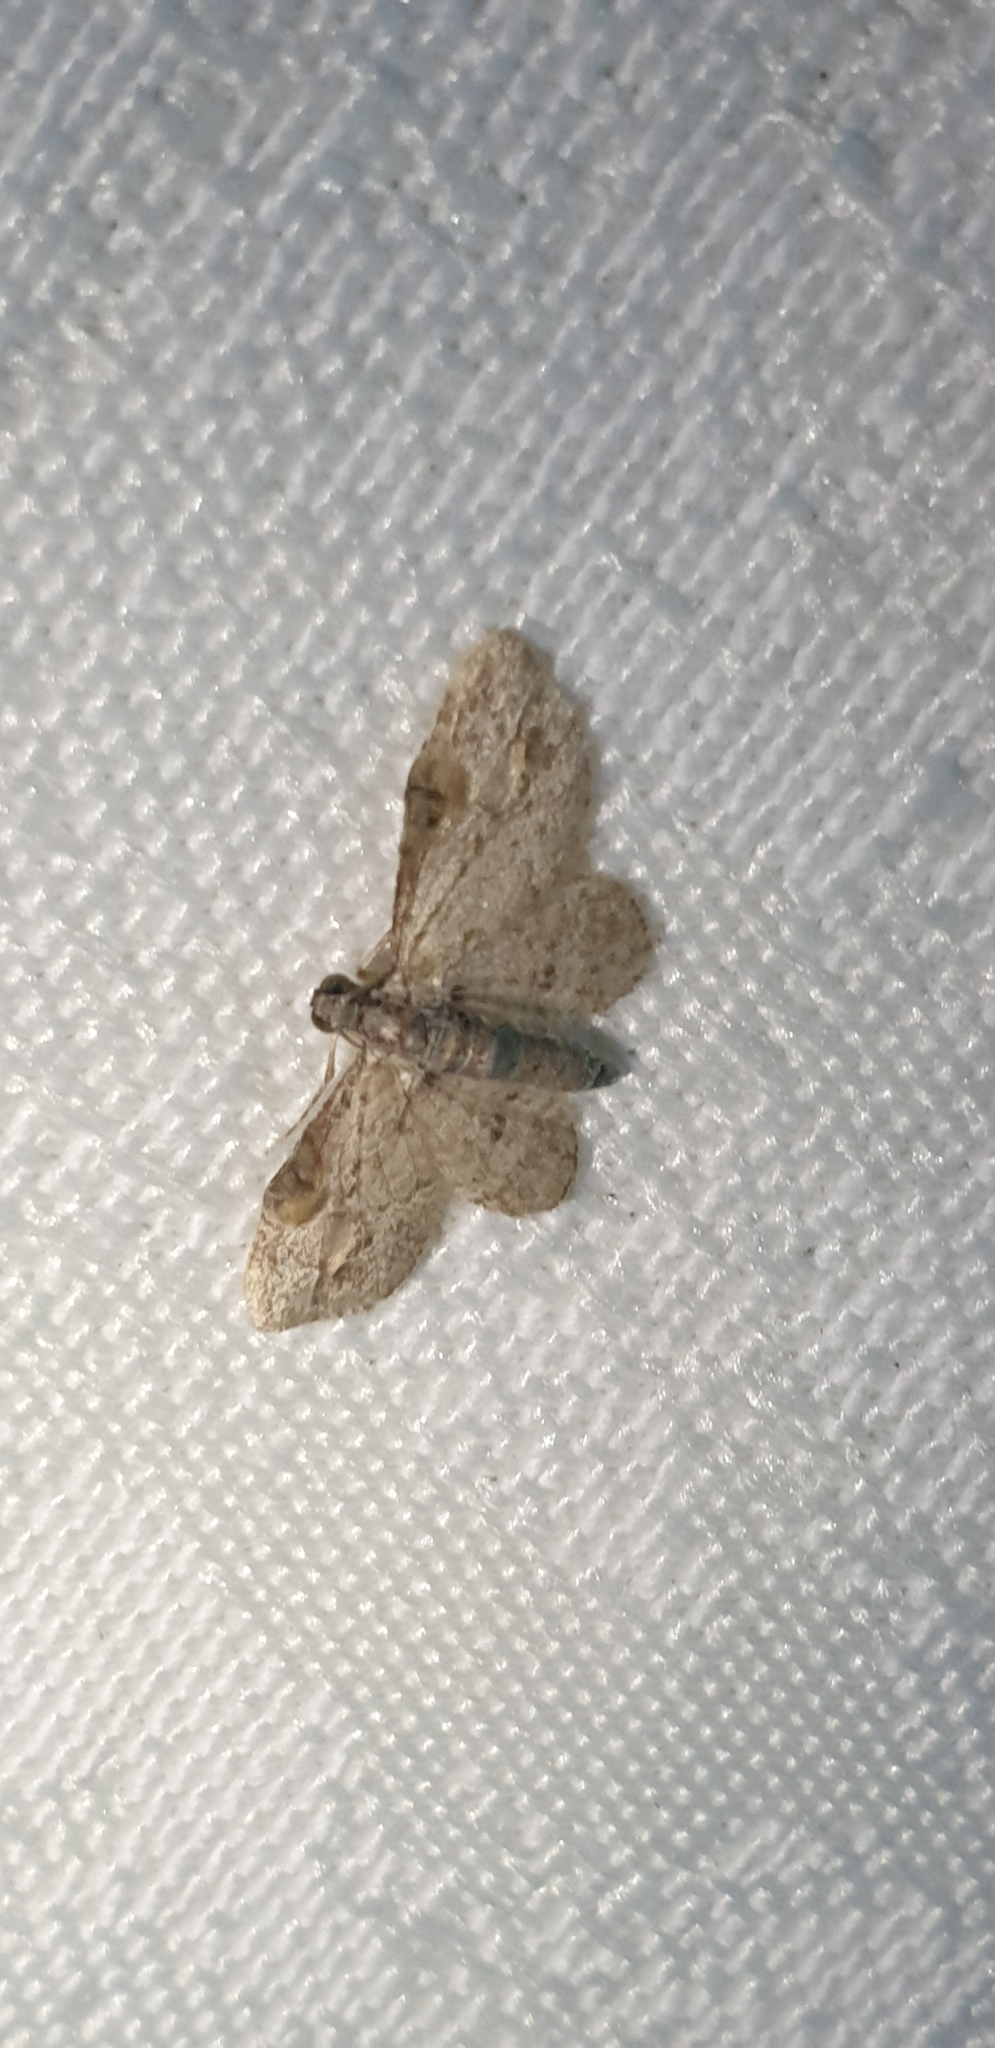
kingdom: Animalia
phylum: Arthropoda
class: Insecta
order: Lepidoptera
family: Geometridae
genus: Chloroclystis
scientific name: Chloroclystis insigillata
